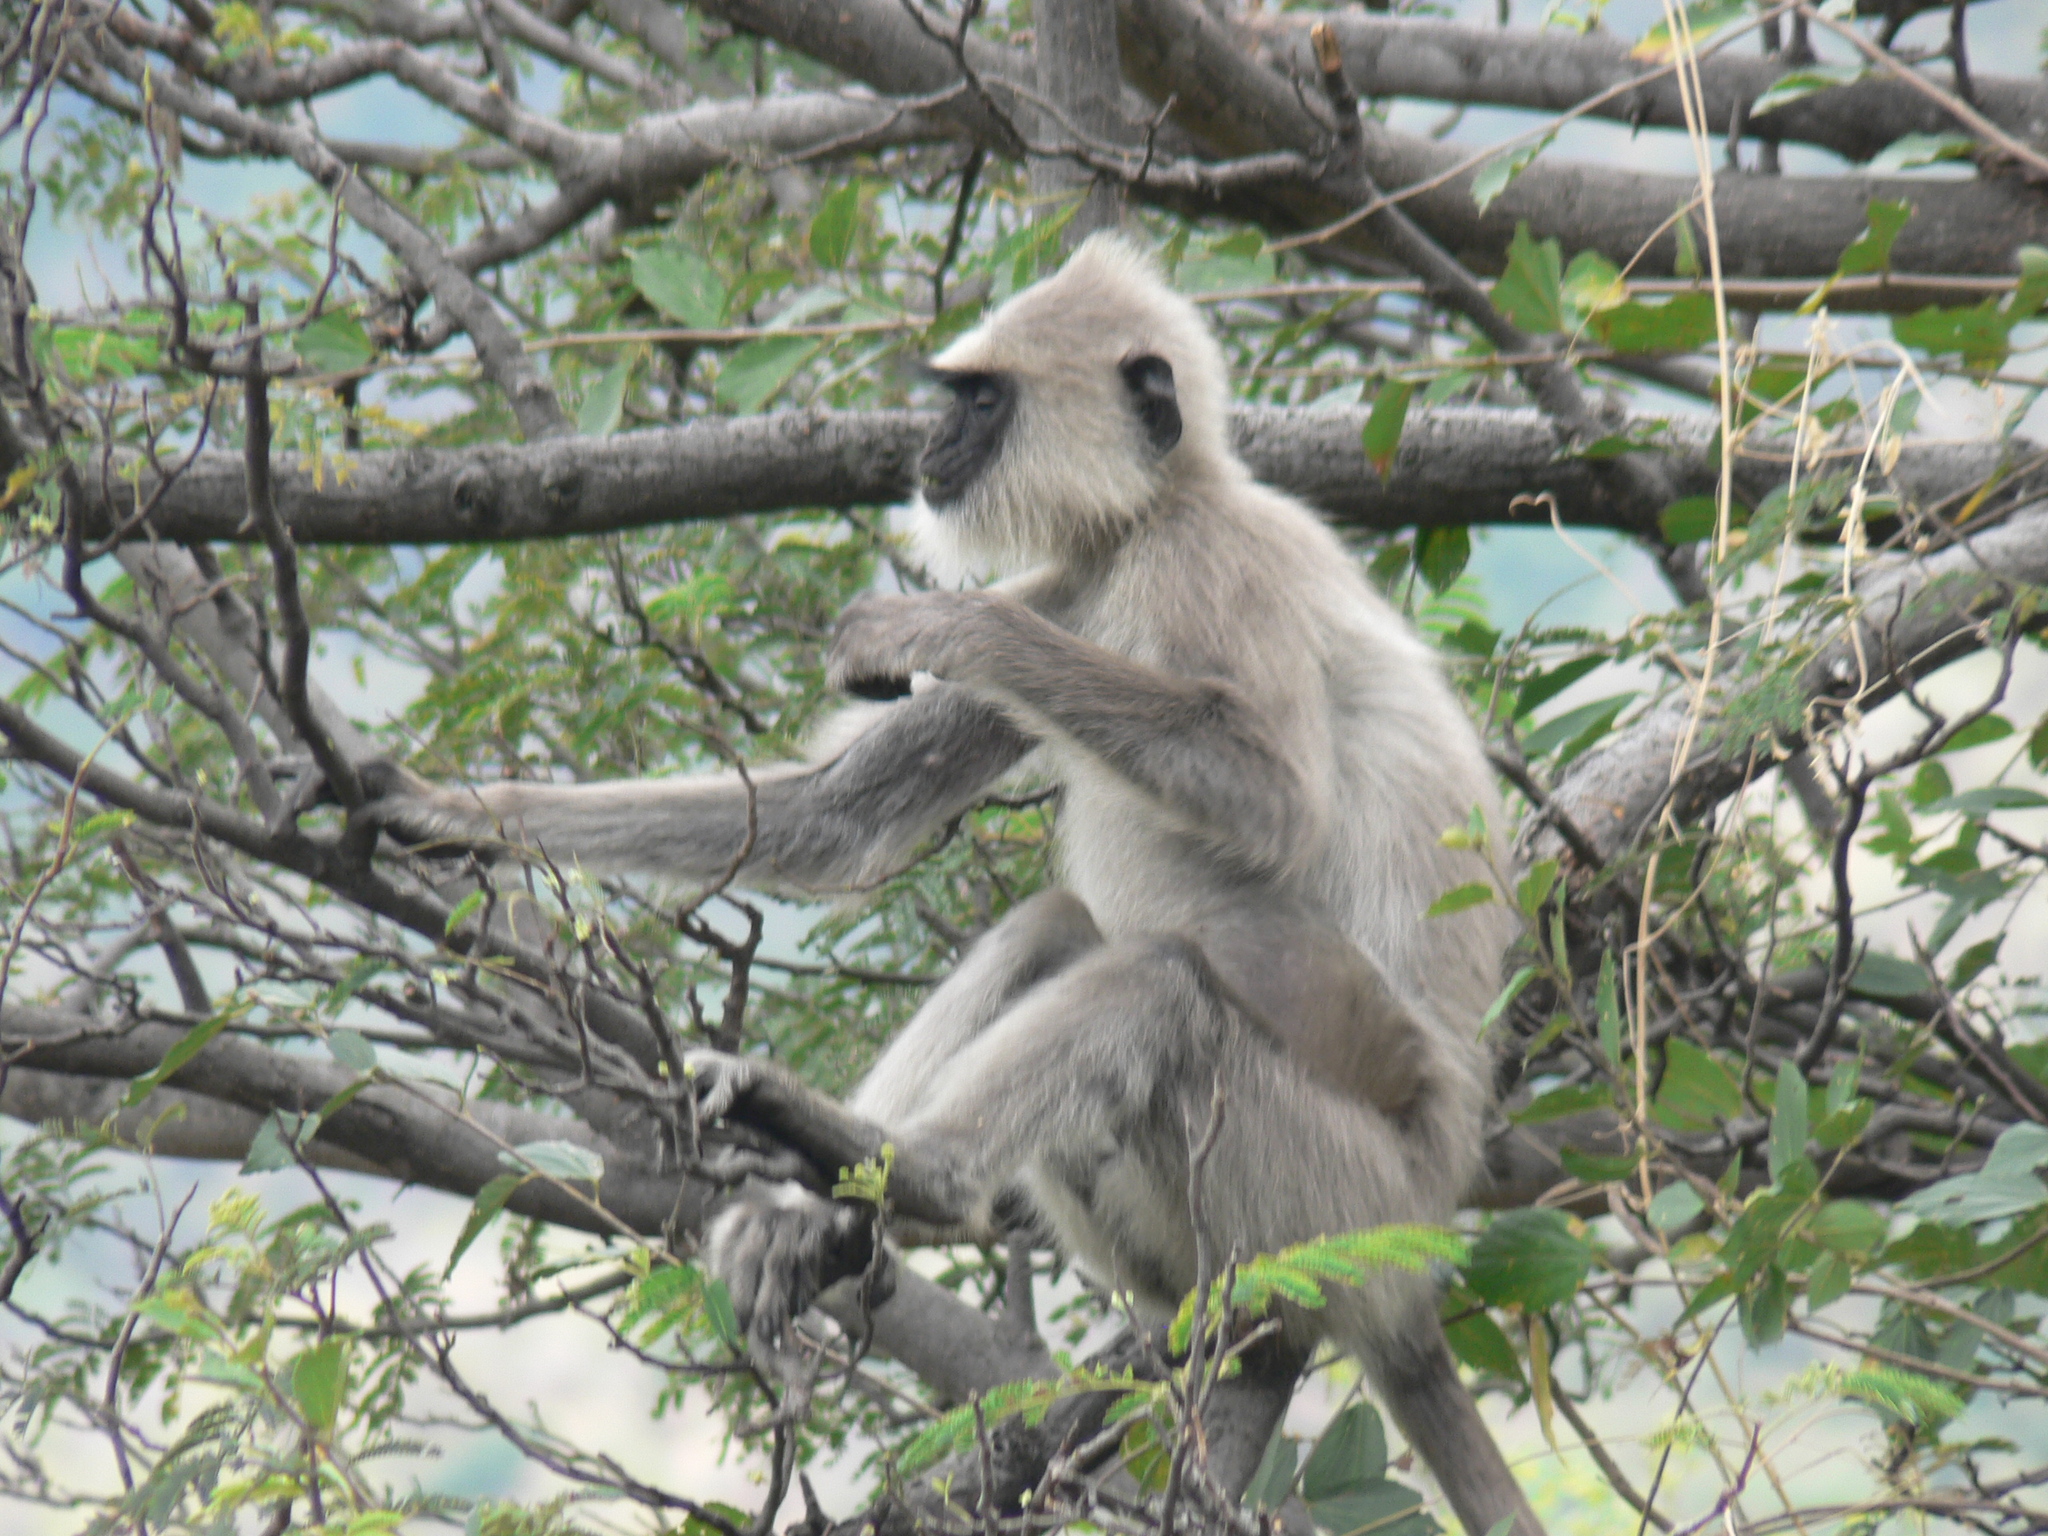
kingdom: Animalia
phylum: Chordata
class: Mammalia
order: Primates
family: Cercopithecidae
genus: Semnopithecus
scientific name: Semnopithecus priam
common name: Tufted gray langur
